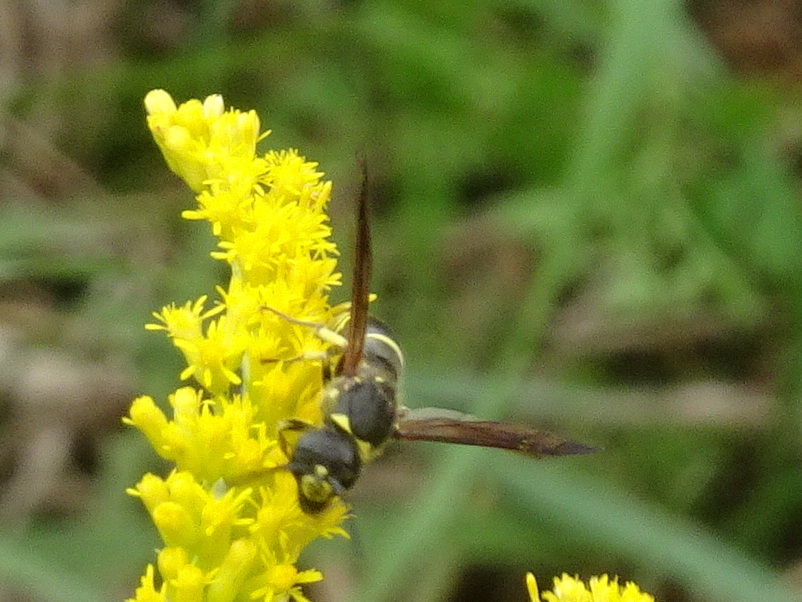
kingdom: Animalia
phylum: Arthropoda
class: Insecta
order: Hymenoptera
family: Vespidae
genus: Ancistrocerus
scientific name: Ancistrocerus
